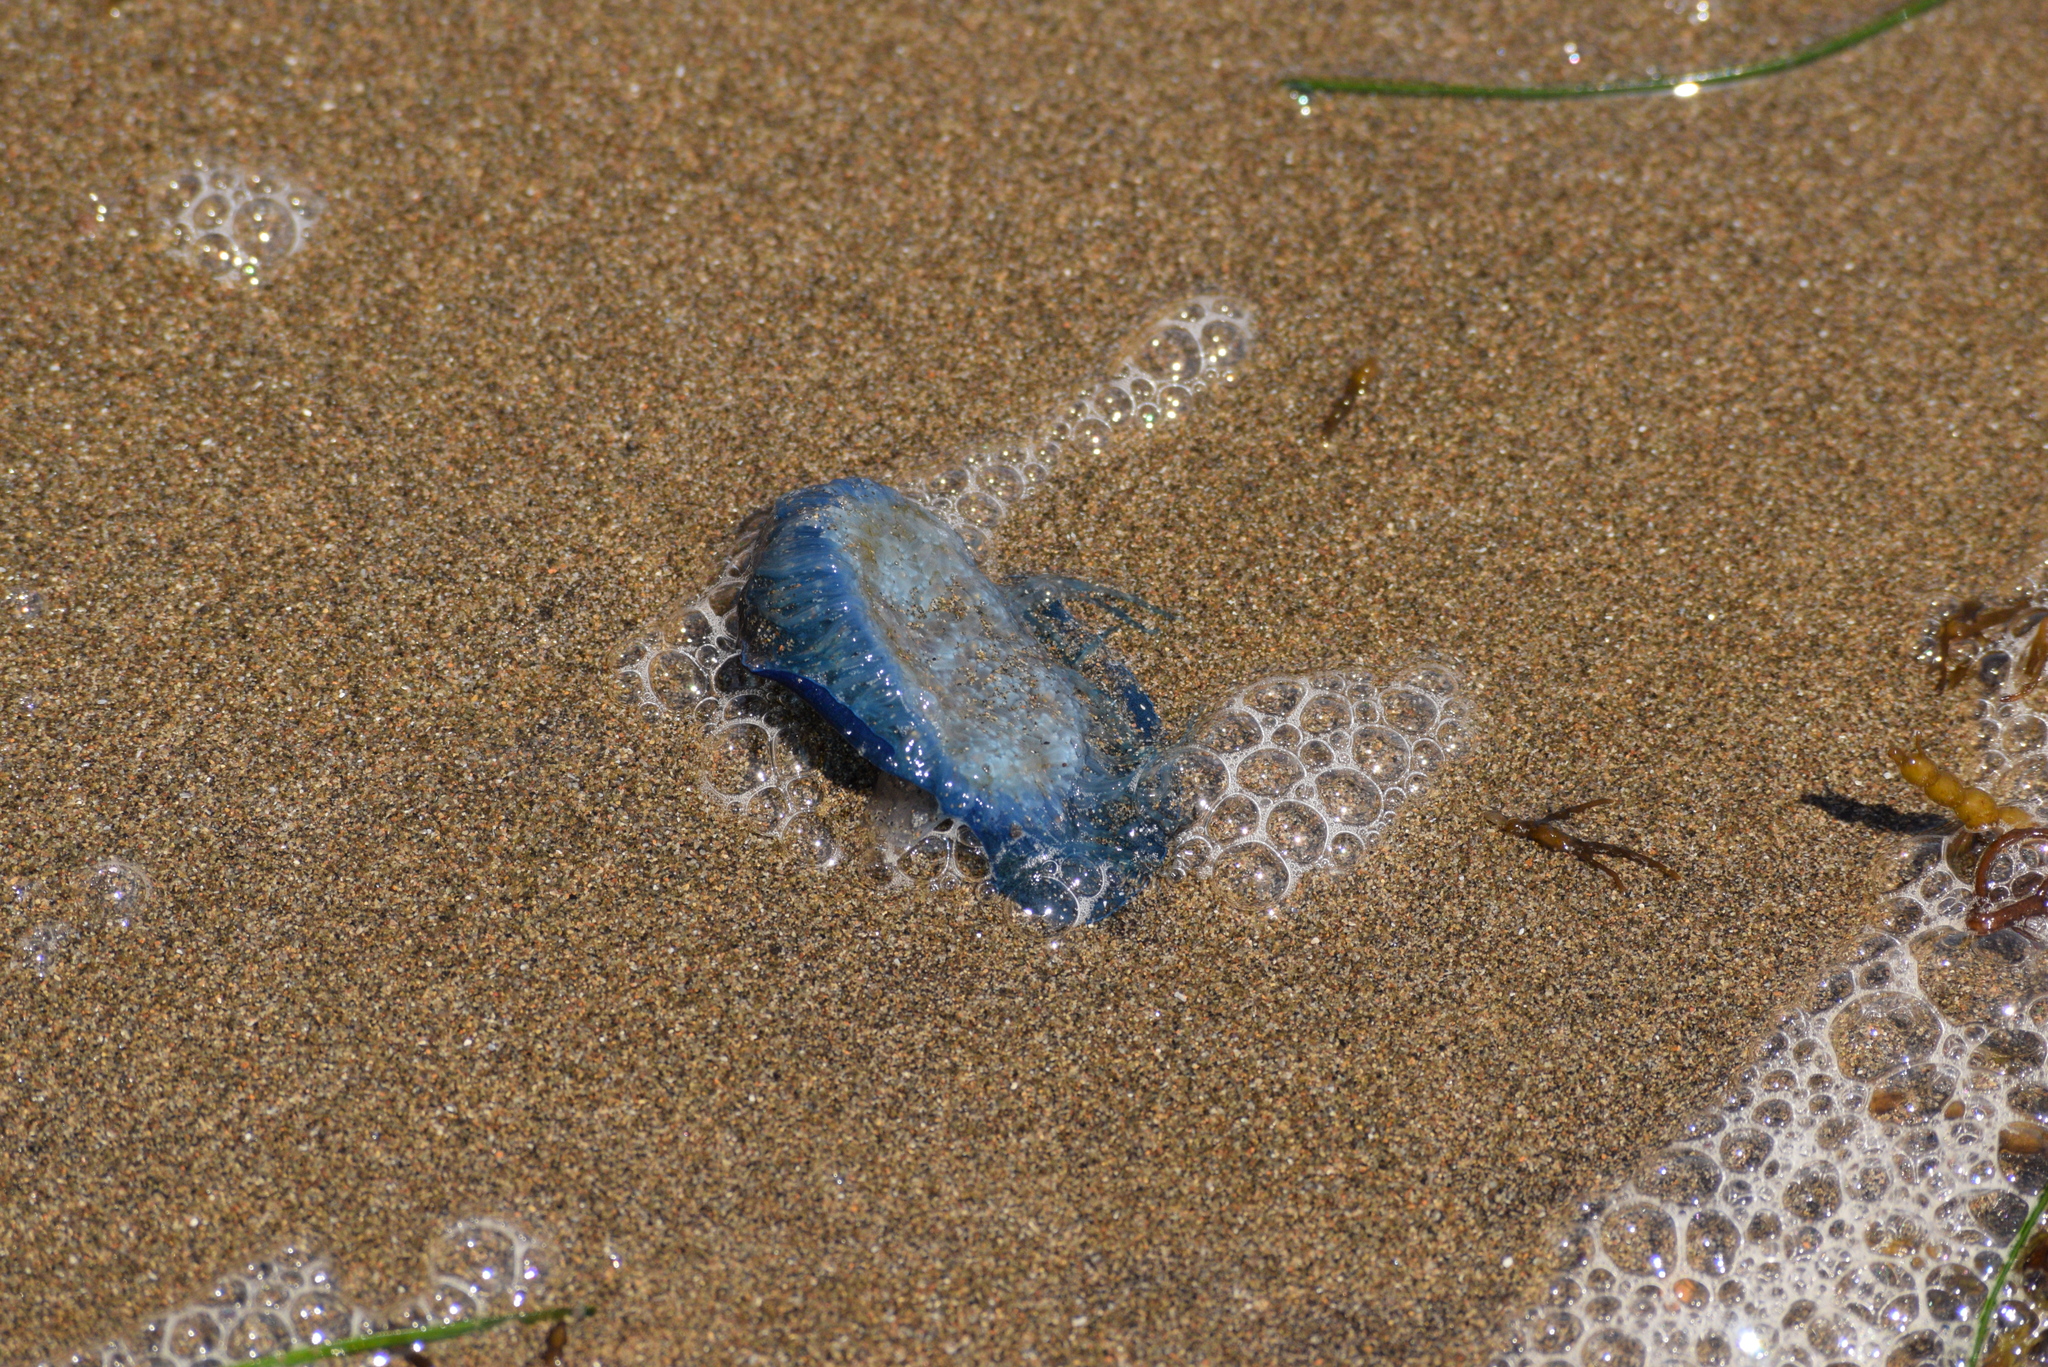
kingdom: Animalia
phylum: Cnidaria
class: Hydrozoa
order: Anthoathecata
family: Porpitidae
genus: Velella
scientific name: Velella velella
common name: By-the-wind-sailor
